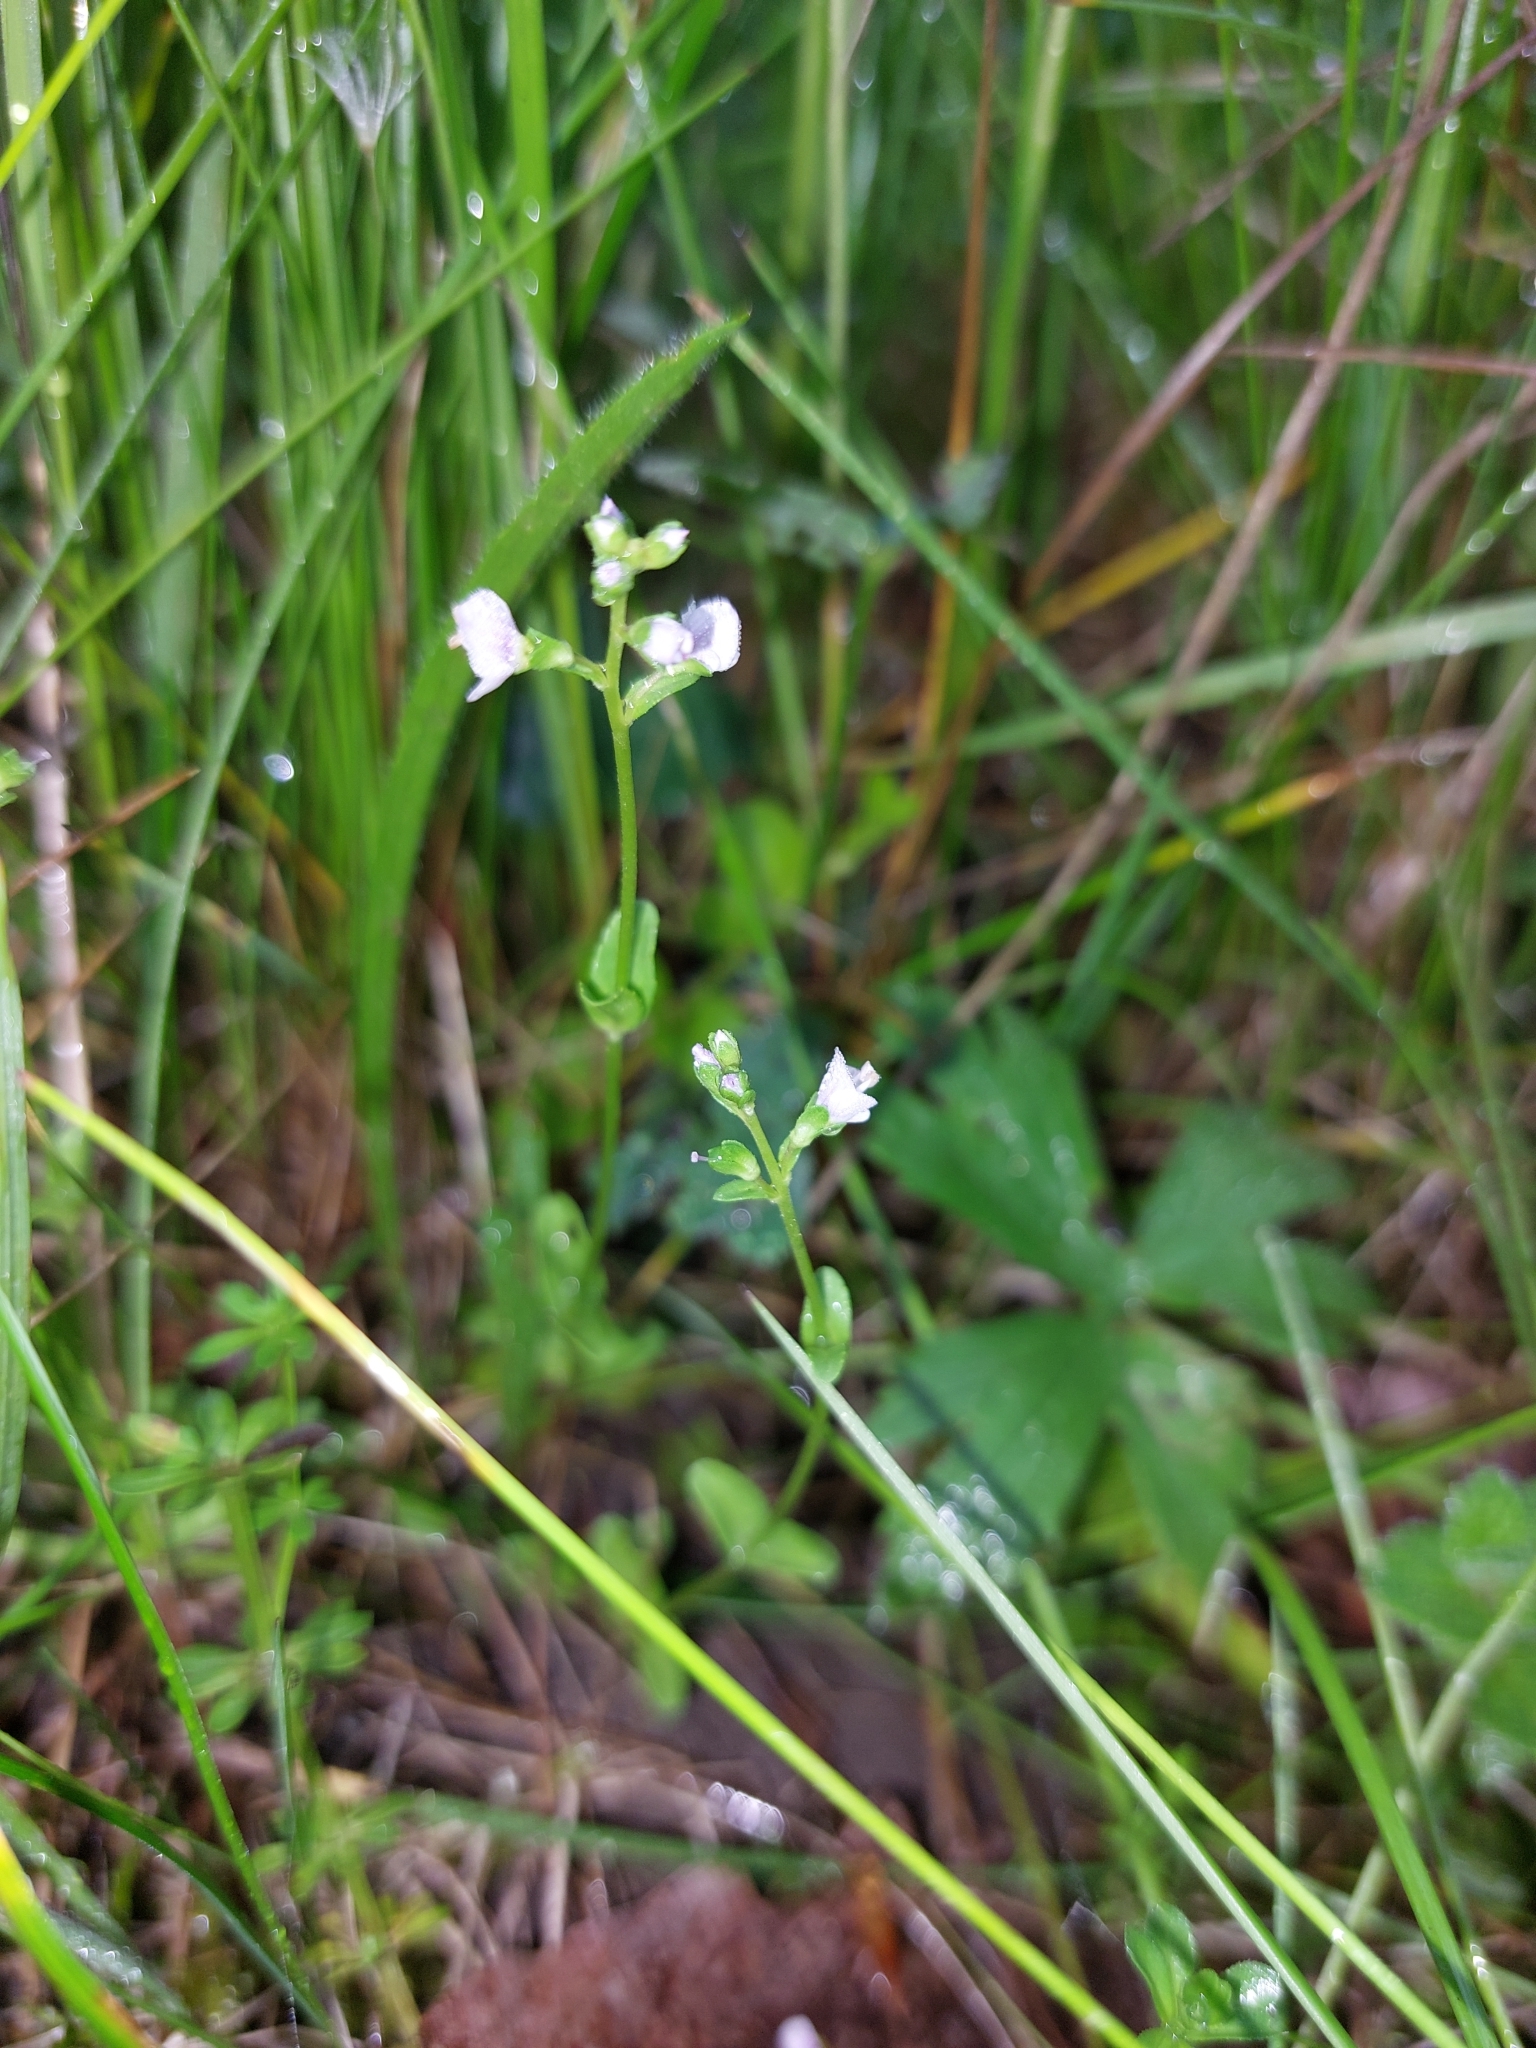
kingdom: Plantae
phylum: Tracheophyta
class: Magnoliopsida
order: Lamiales
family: Plantaginaceae
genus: Veronica
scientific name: Veronica serpyllifolia
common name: Thyme-leaved speedwell
